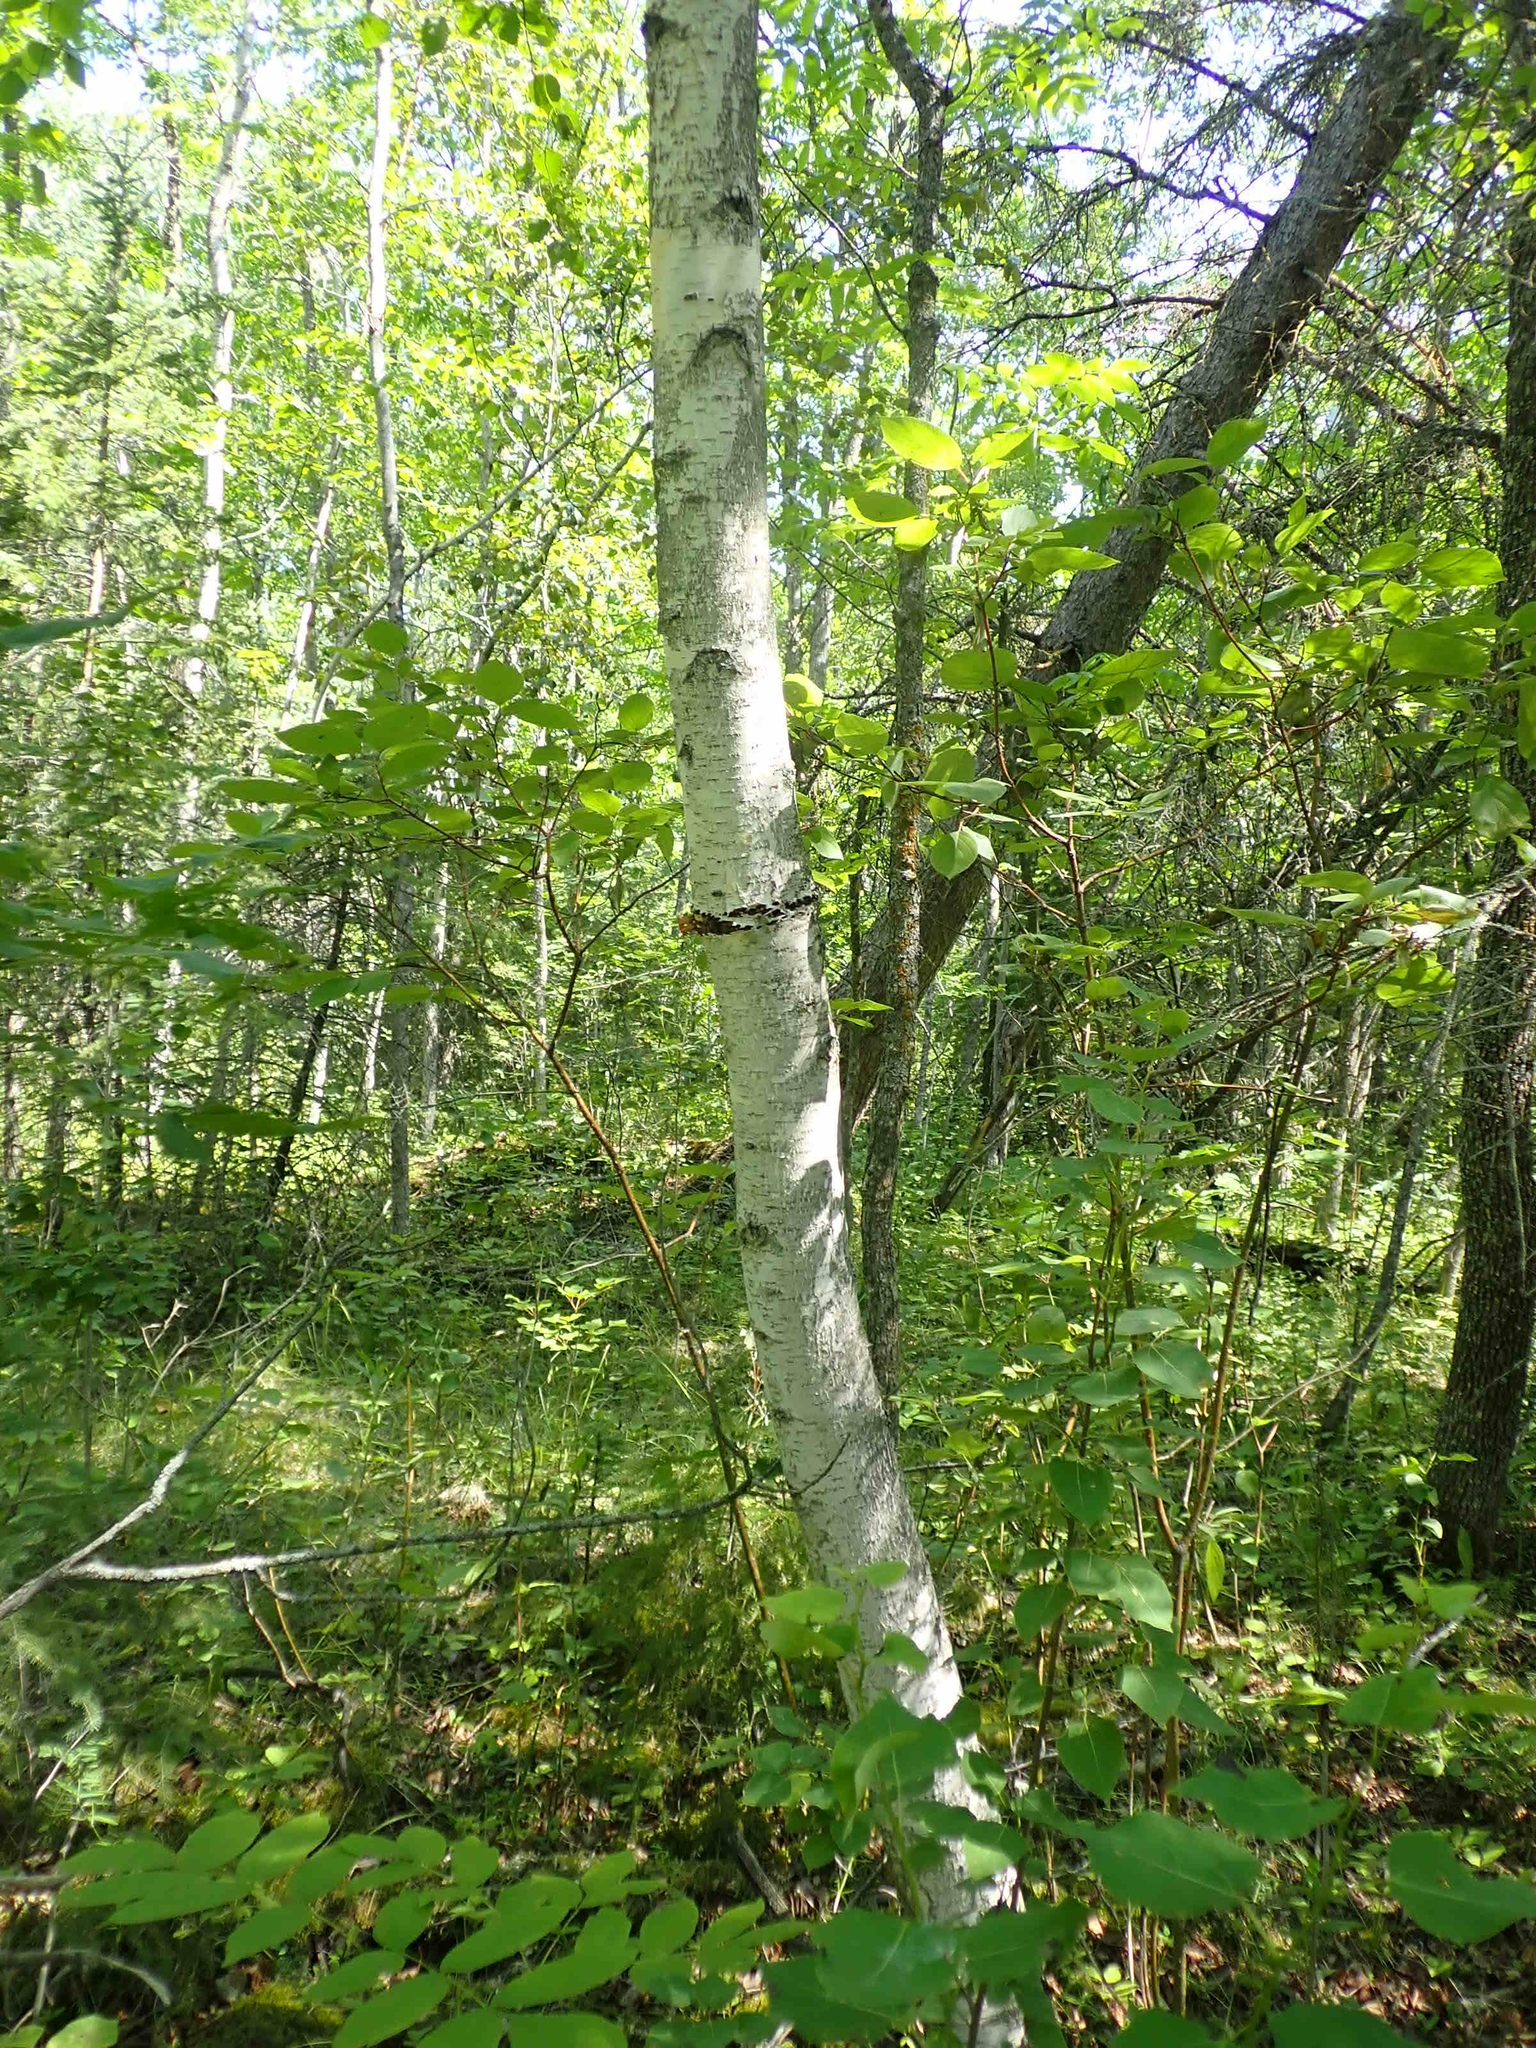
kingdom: Plantae
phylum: Tracheophyta
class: Magnoliopsida
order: Fagales
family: Betulaceae
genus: Betula
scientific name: Betula papyrifera
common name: Paper birch
